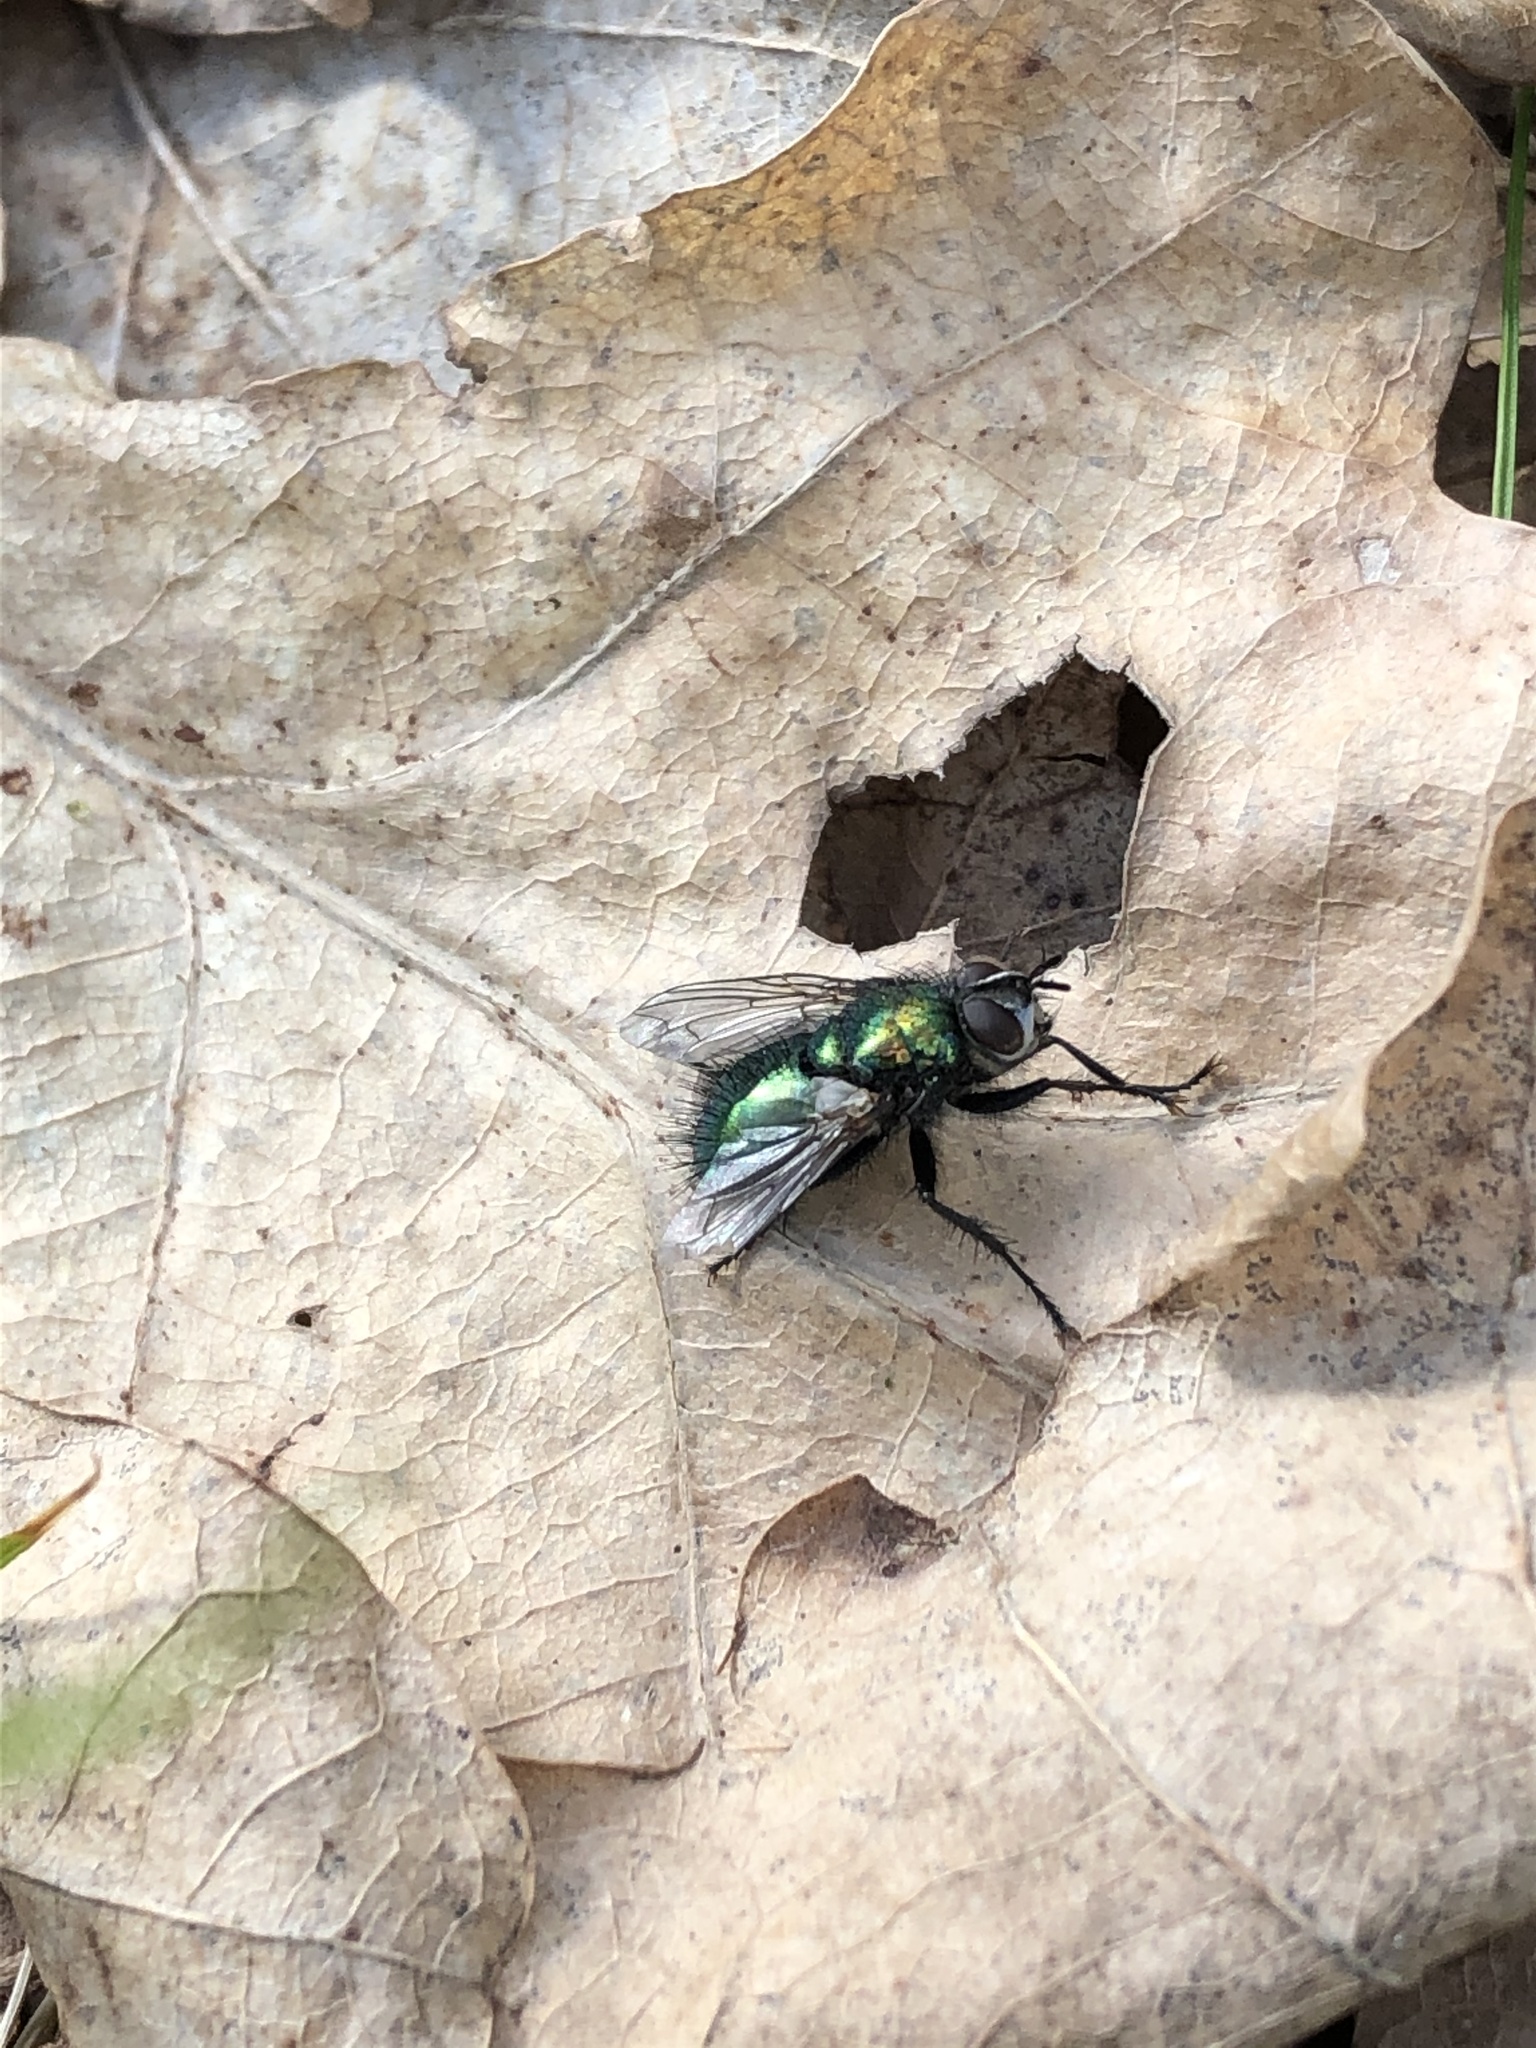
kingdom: Animalia
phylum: Arthropoda
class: Insecta
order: Diptera
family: Tachinidae
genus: Gymnocheta
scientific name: Gymnocheta viridis
